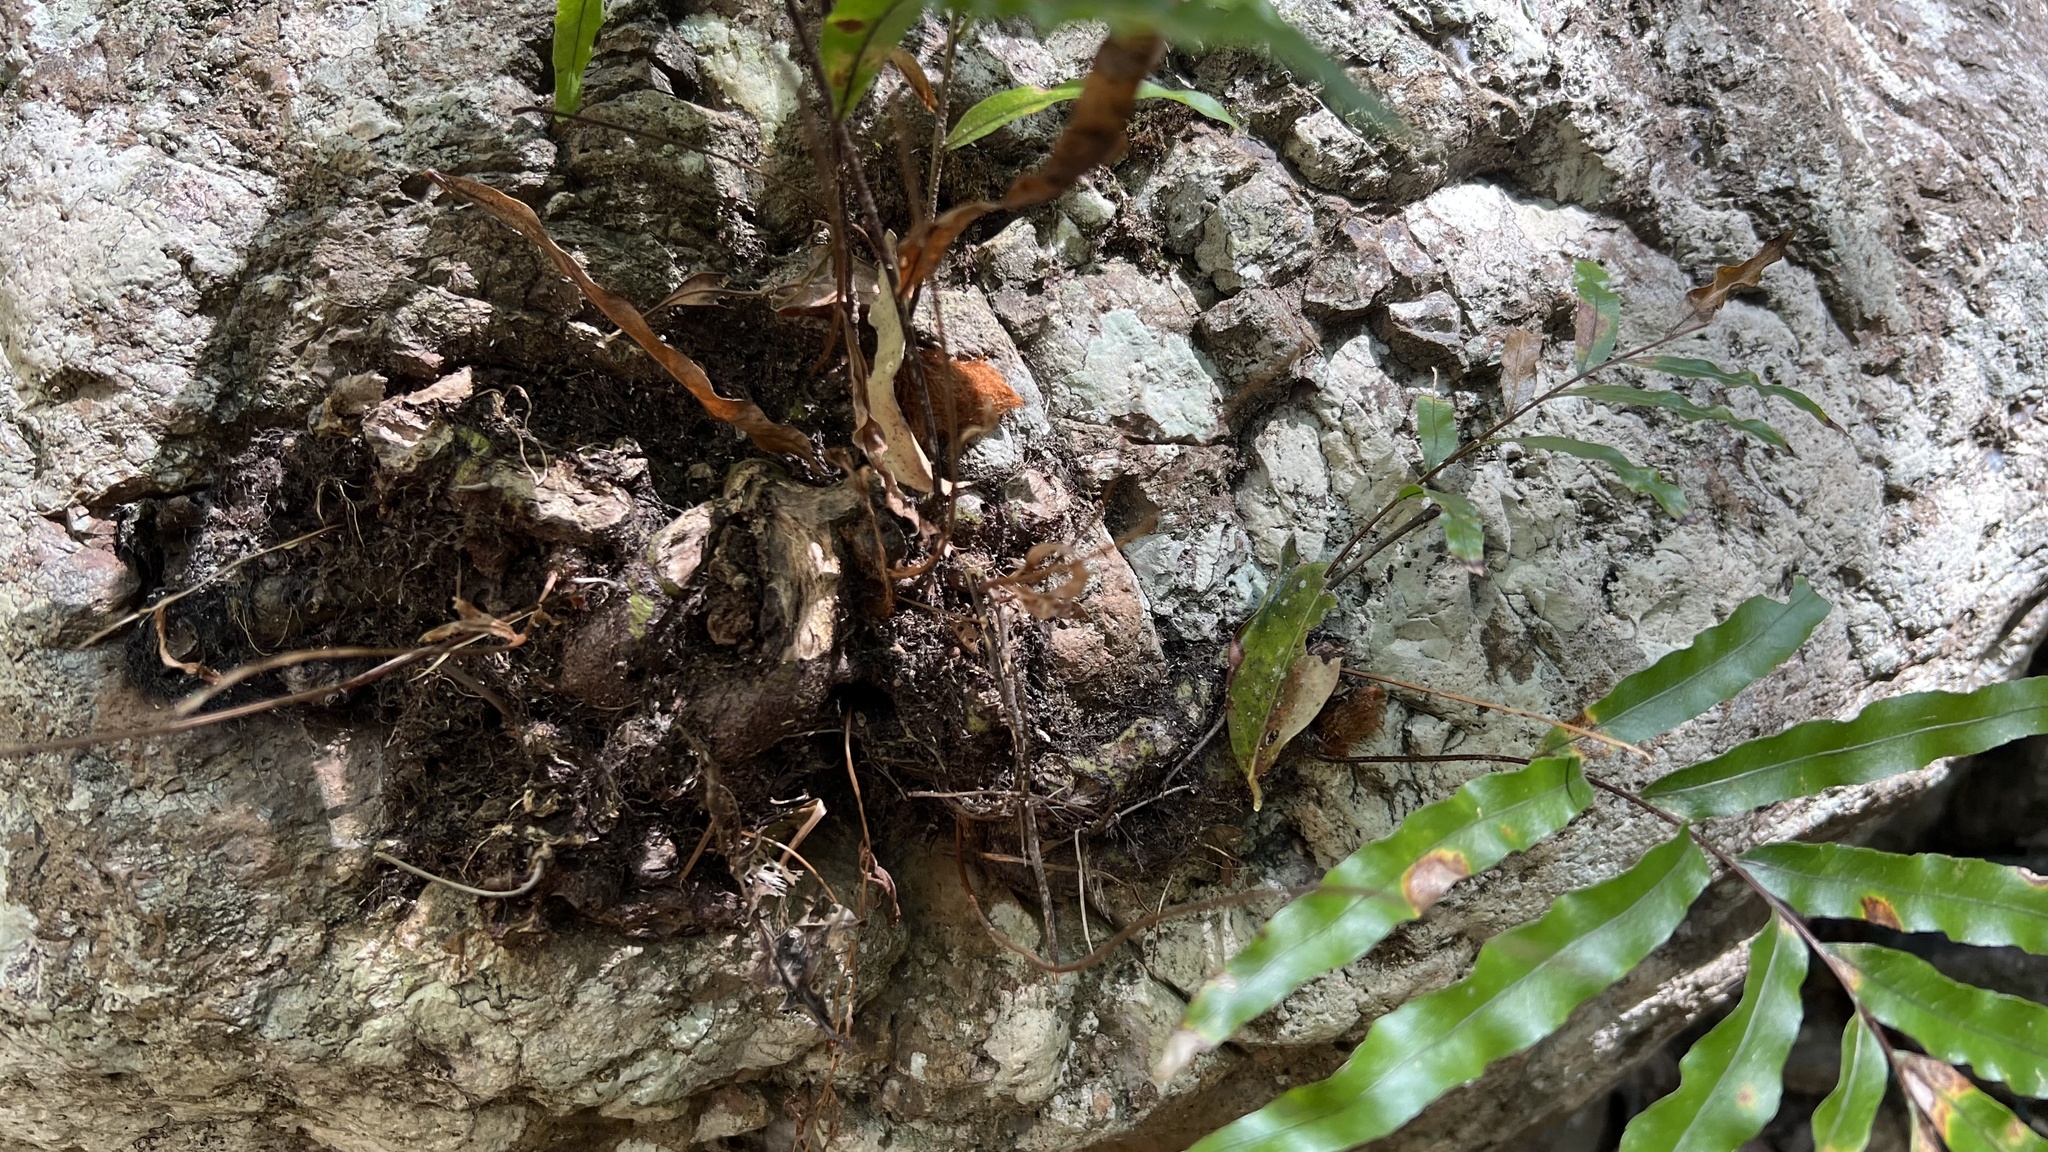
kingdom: Plantae
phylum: Tracheophyta
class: Polypodiopsida
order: Polypodiales
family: Polypodiaceae
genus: Drynaria
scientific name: Drynaria rigidula
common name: Basket fern
